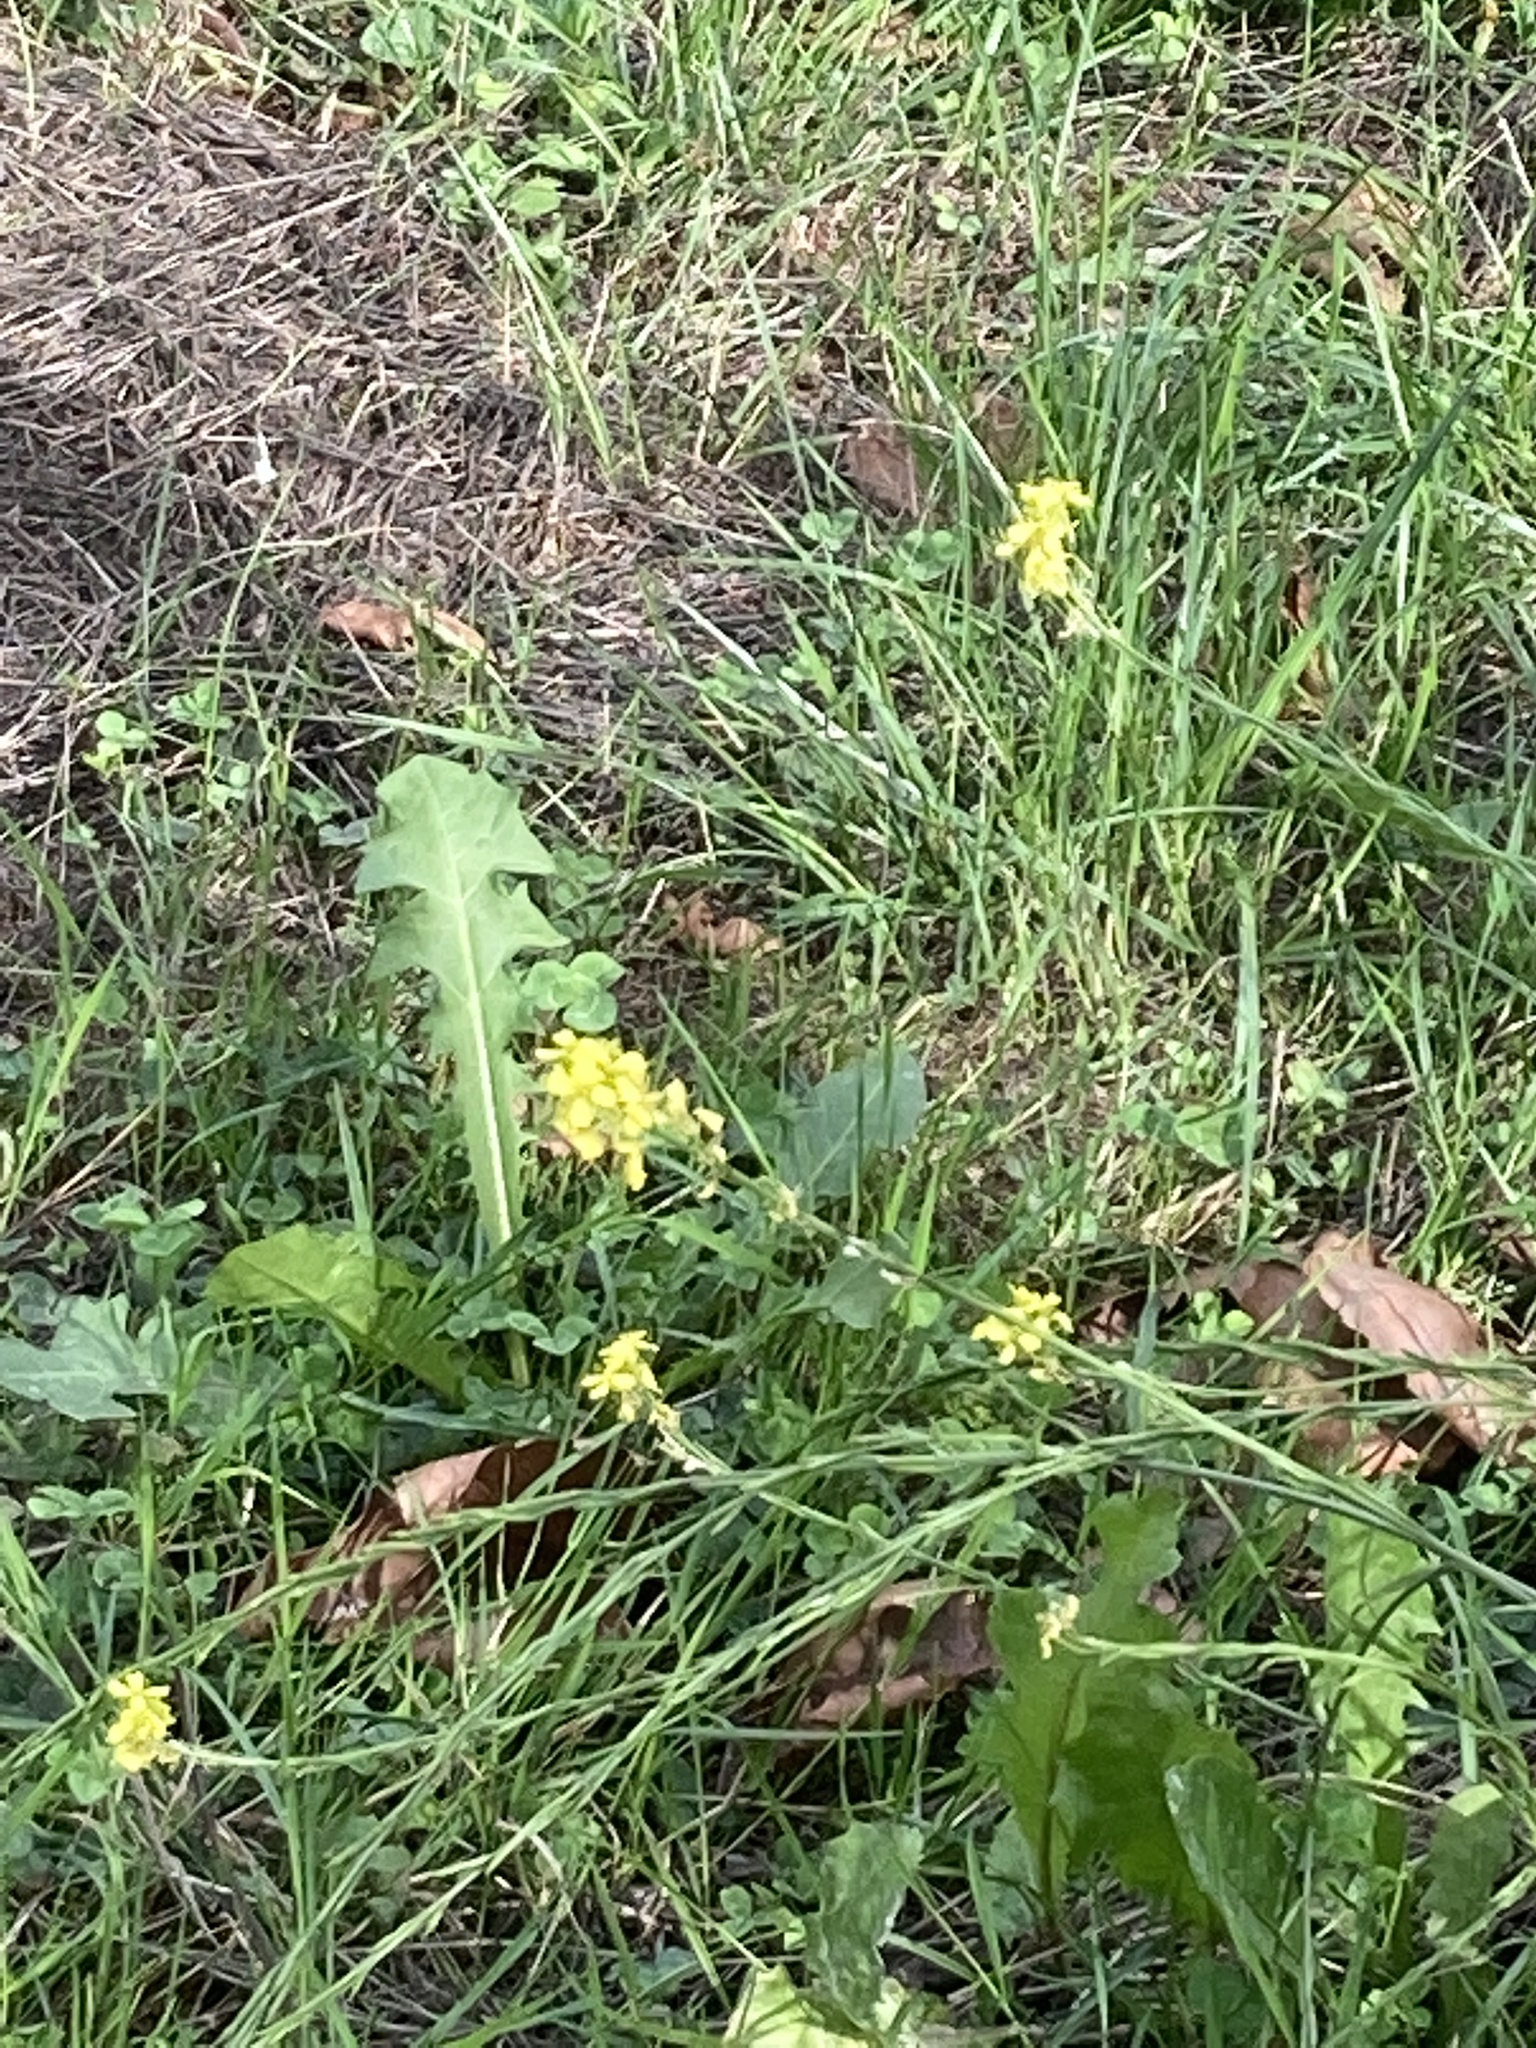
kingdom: Plantae
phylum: Tracheophyta
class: Magnoliopsida
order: Brassicales
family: Brassicaceae
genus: Hirschfeldia
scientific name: Hirschfeldia incana
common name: Hoary mustard
